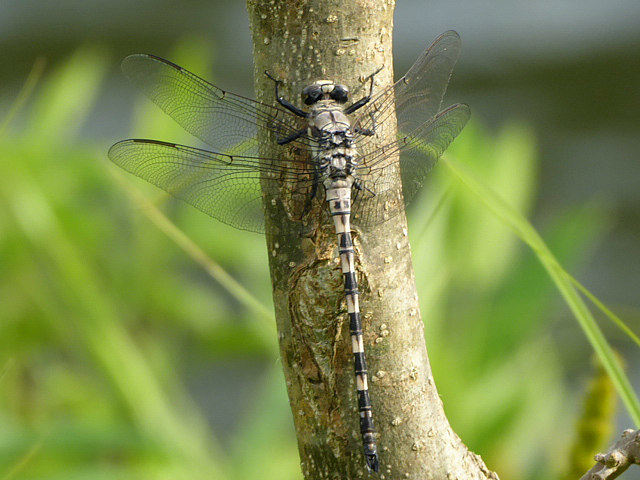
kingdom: Animalia
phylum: Arthropoda
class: Insecta
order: Odonata
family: Petaluridae
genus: Tachopteryx
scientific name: Tachopteryx thoreyi
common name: Gray petaltail
